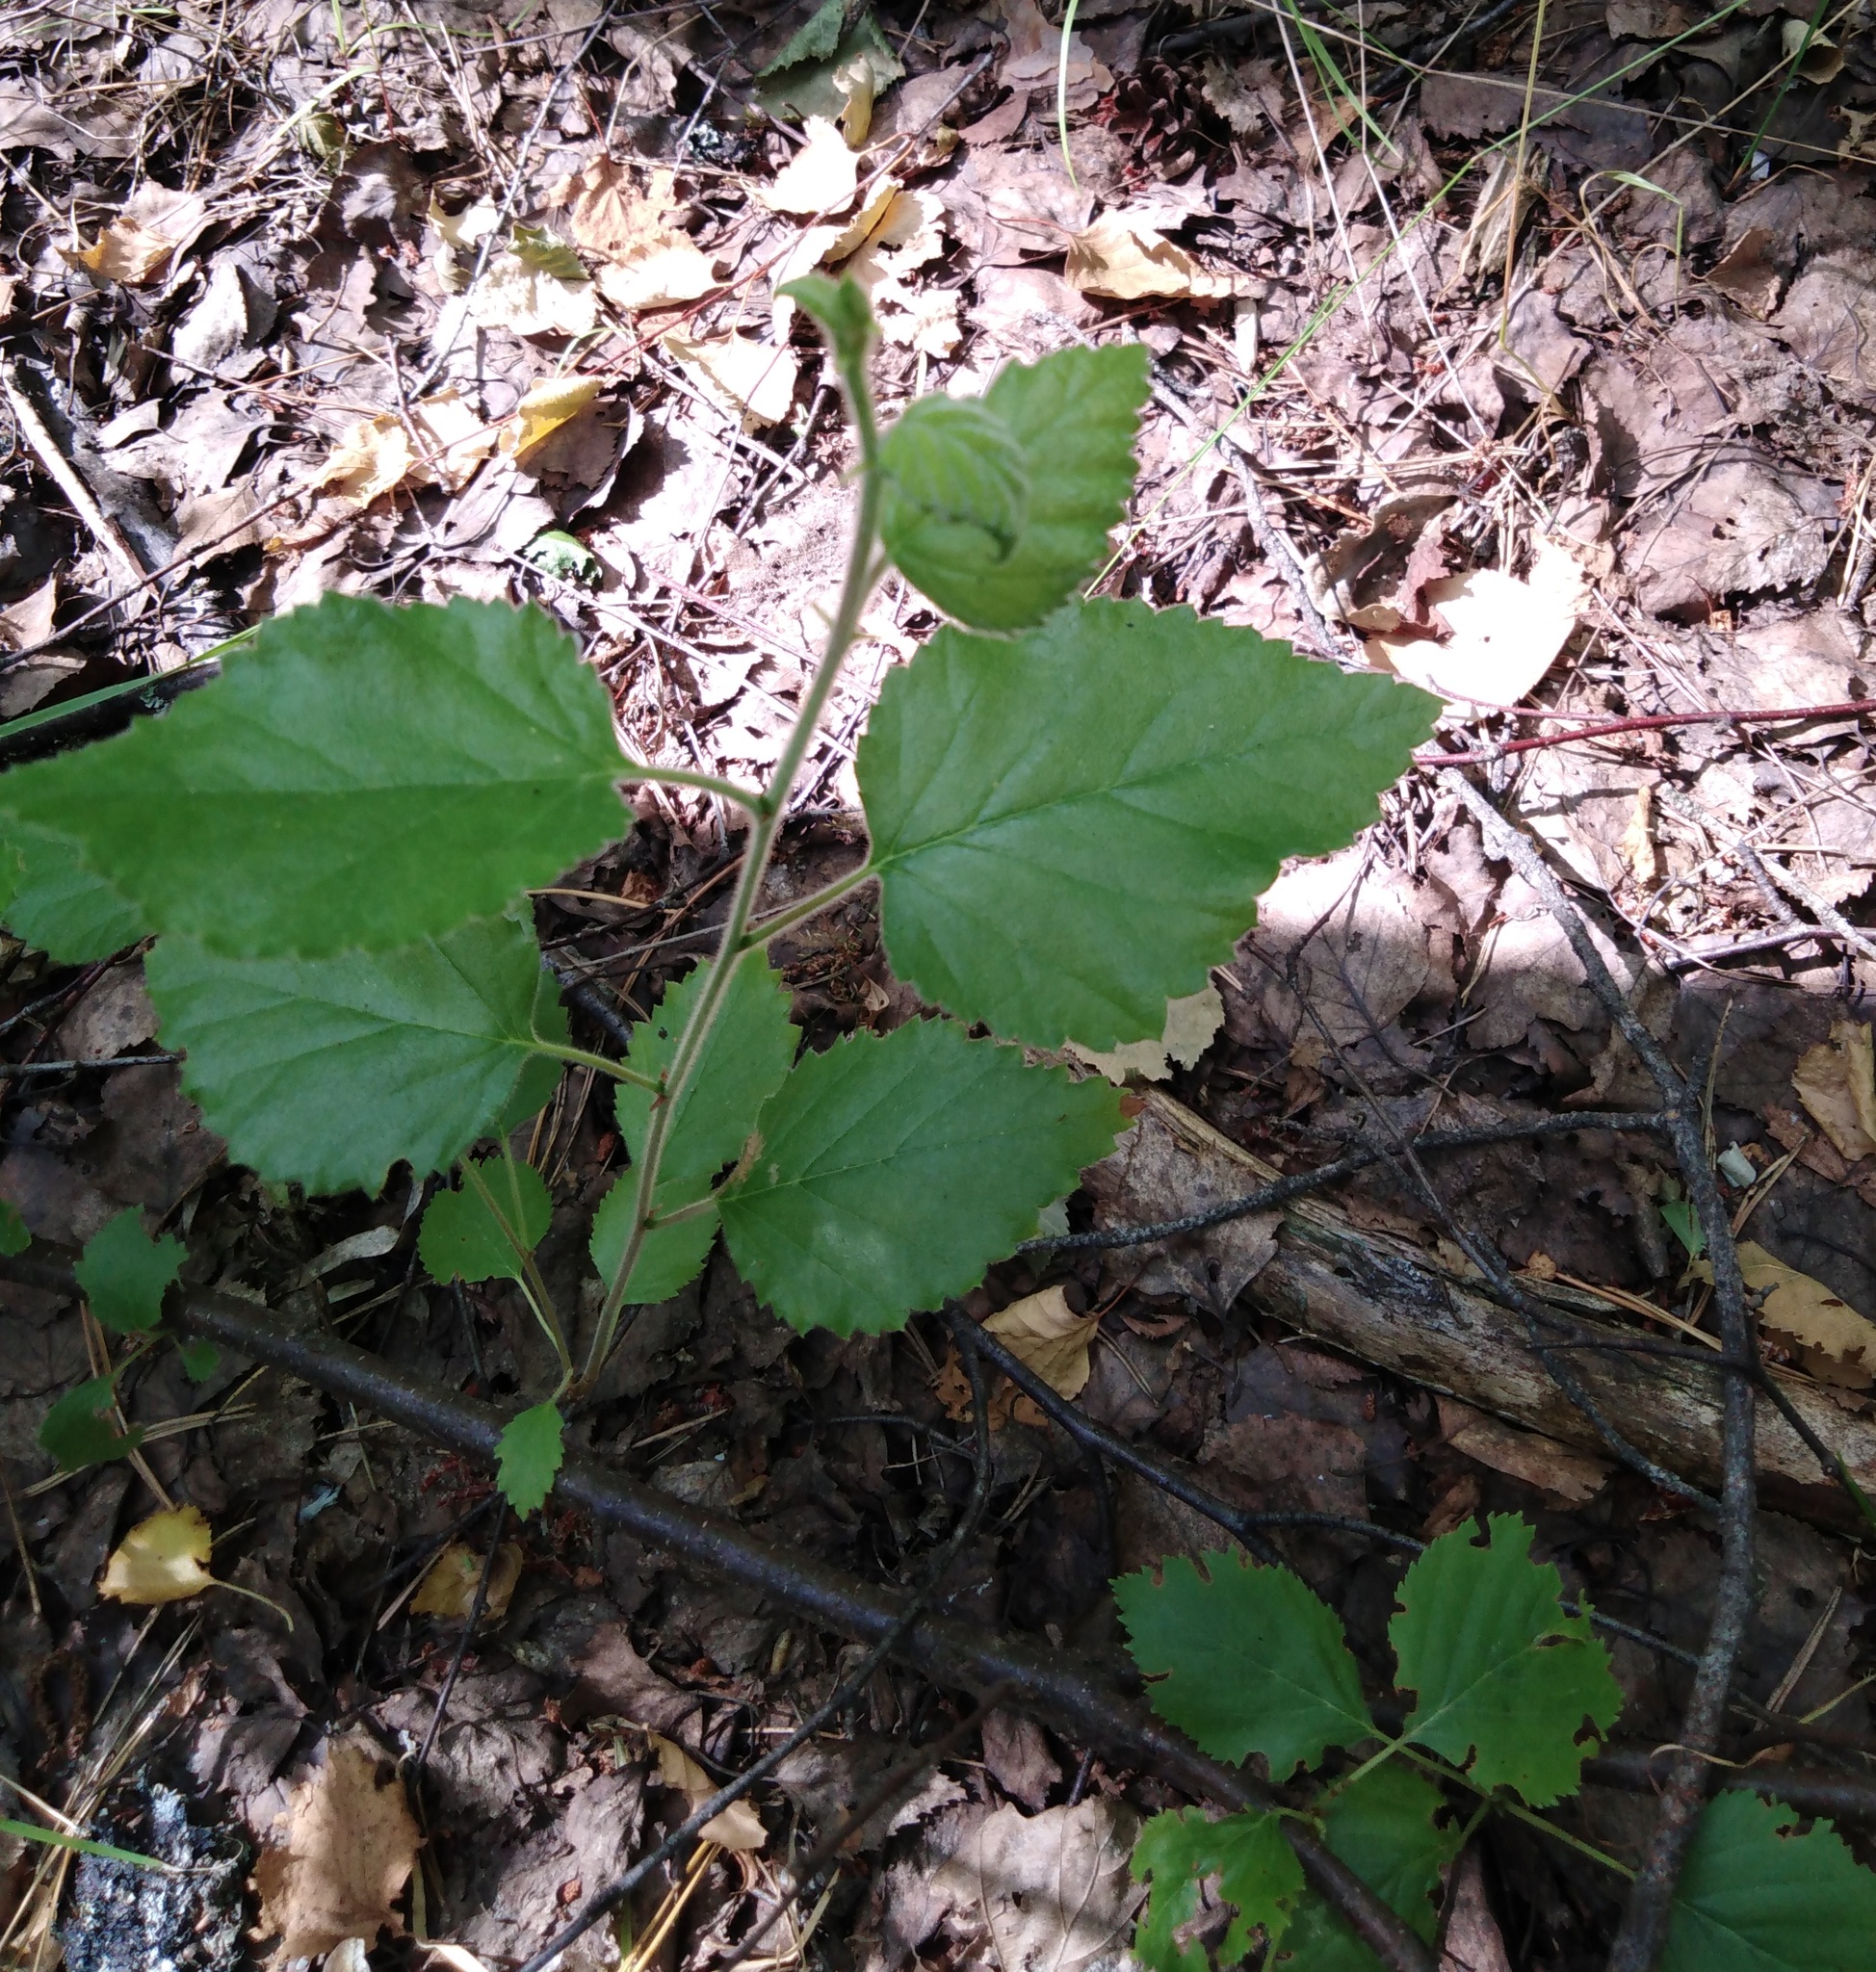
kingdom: Plantae
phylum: Tracheophyta
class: Magnoliopsida
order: Fagales
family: Betulaceae
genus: Betula
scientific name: Betula pubescens
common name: Downy birch
